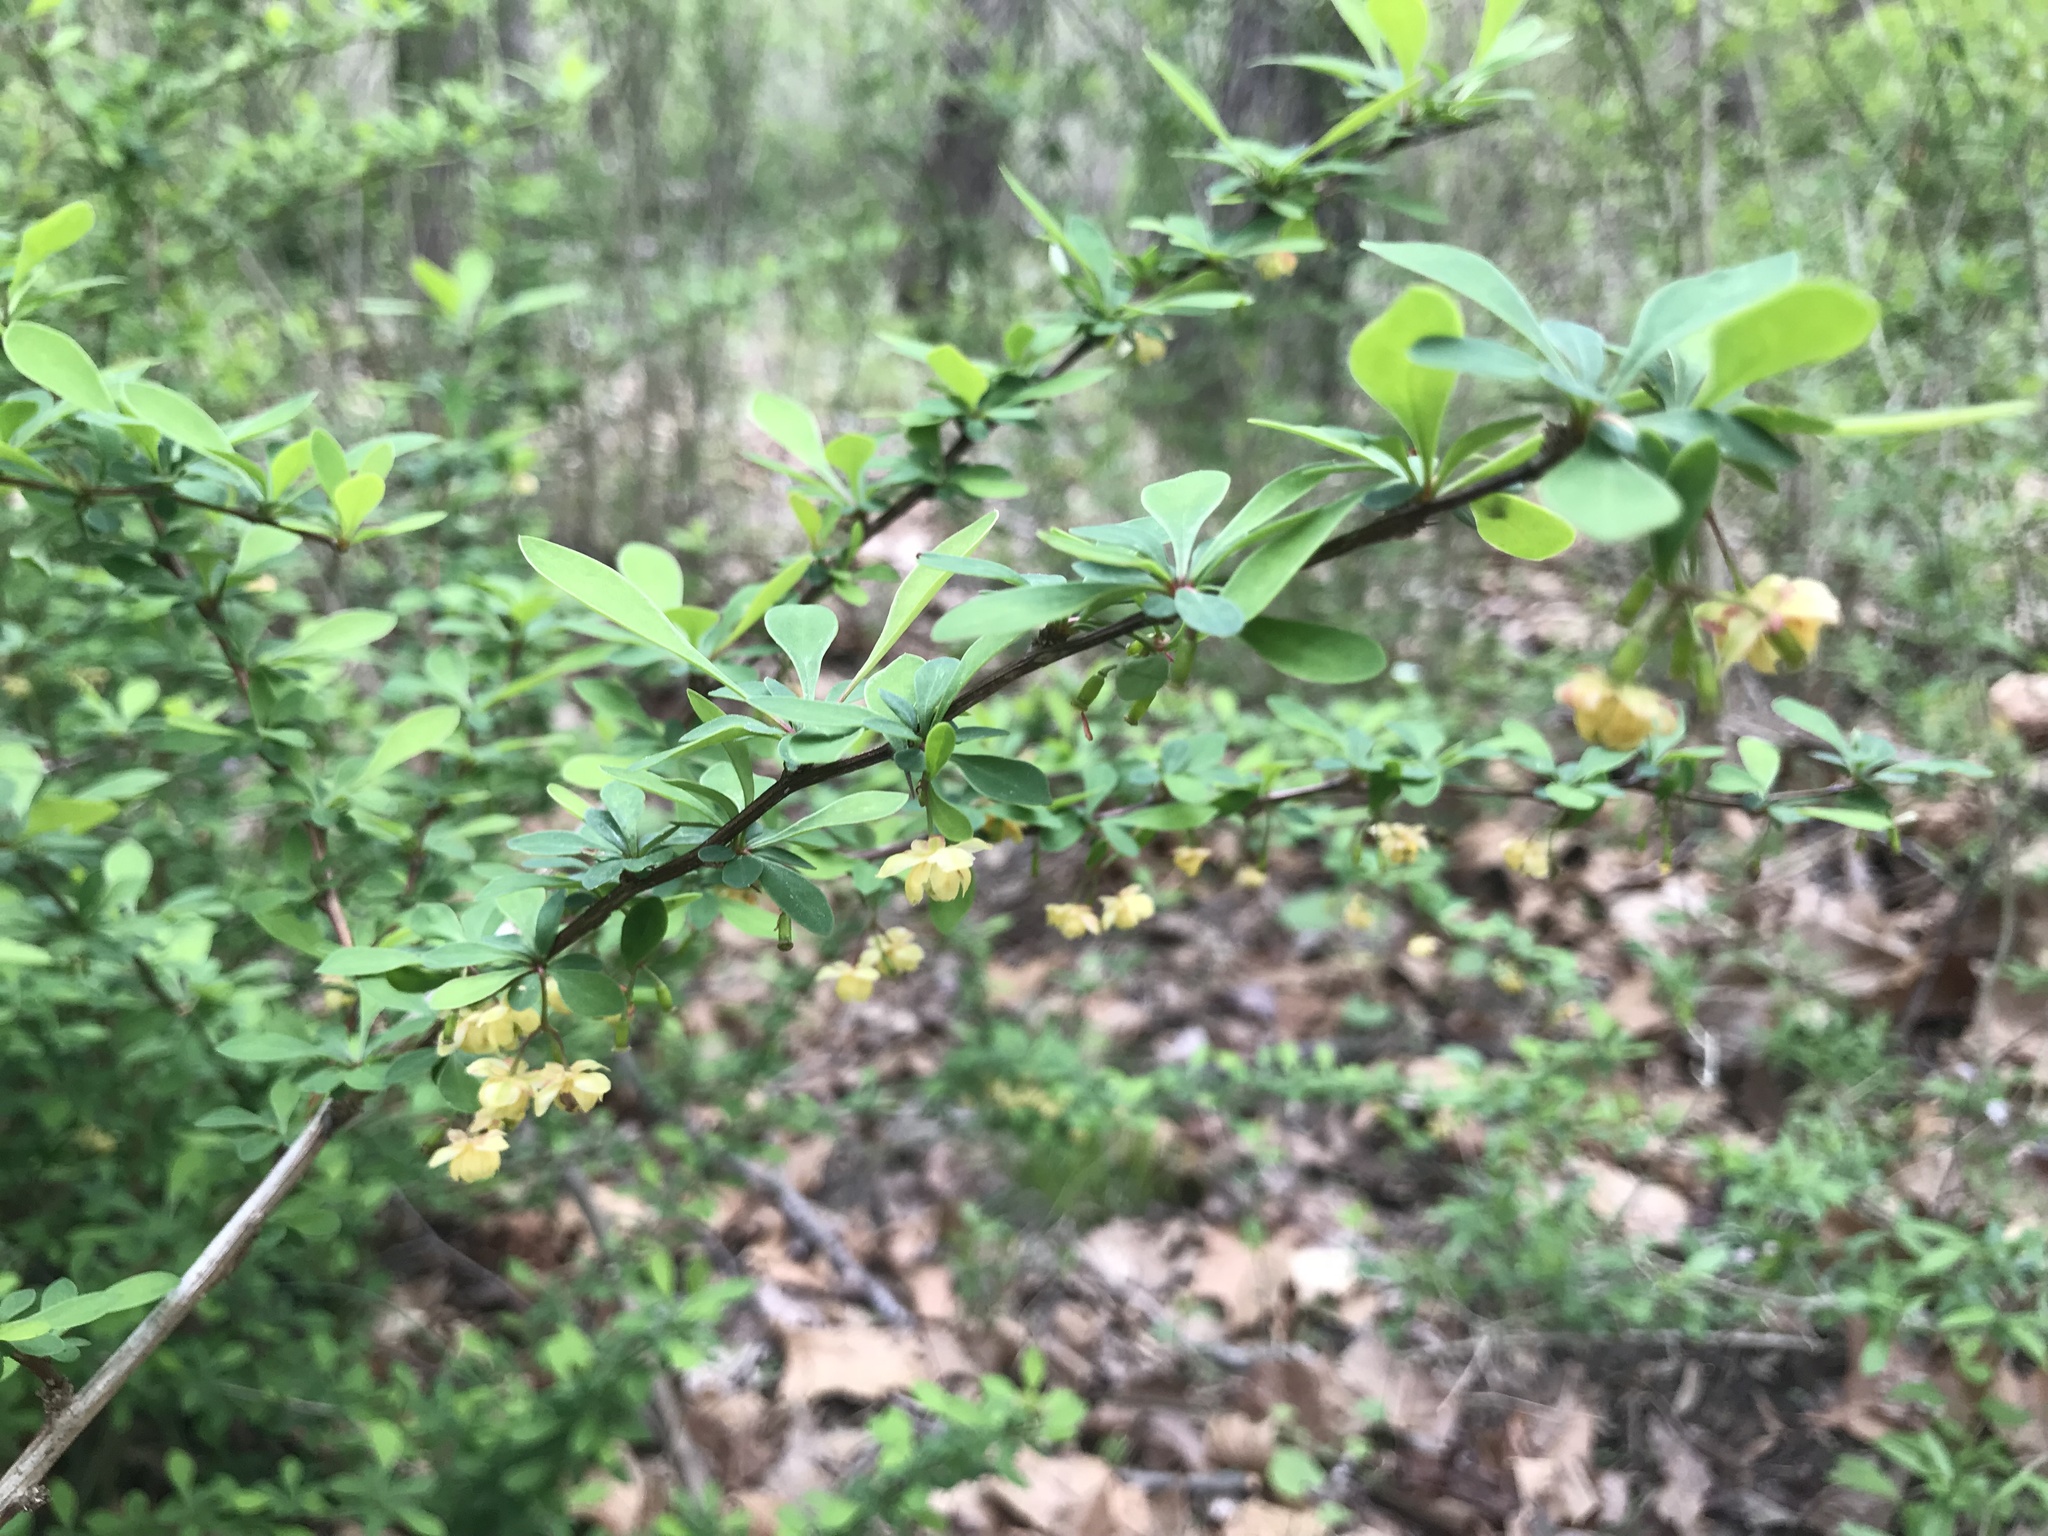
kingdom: Plantae
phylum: Tracheophyta
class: Magnoliopsida
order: Ranunculales
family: Berberidaceae
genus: Berberis
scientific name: Berberis thunbergii
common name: Japanese barberry
